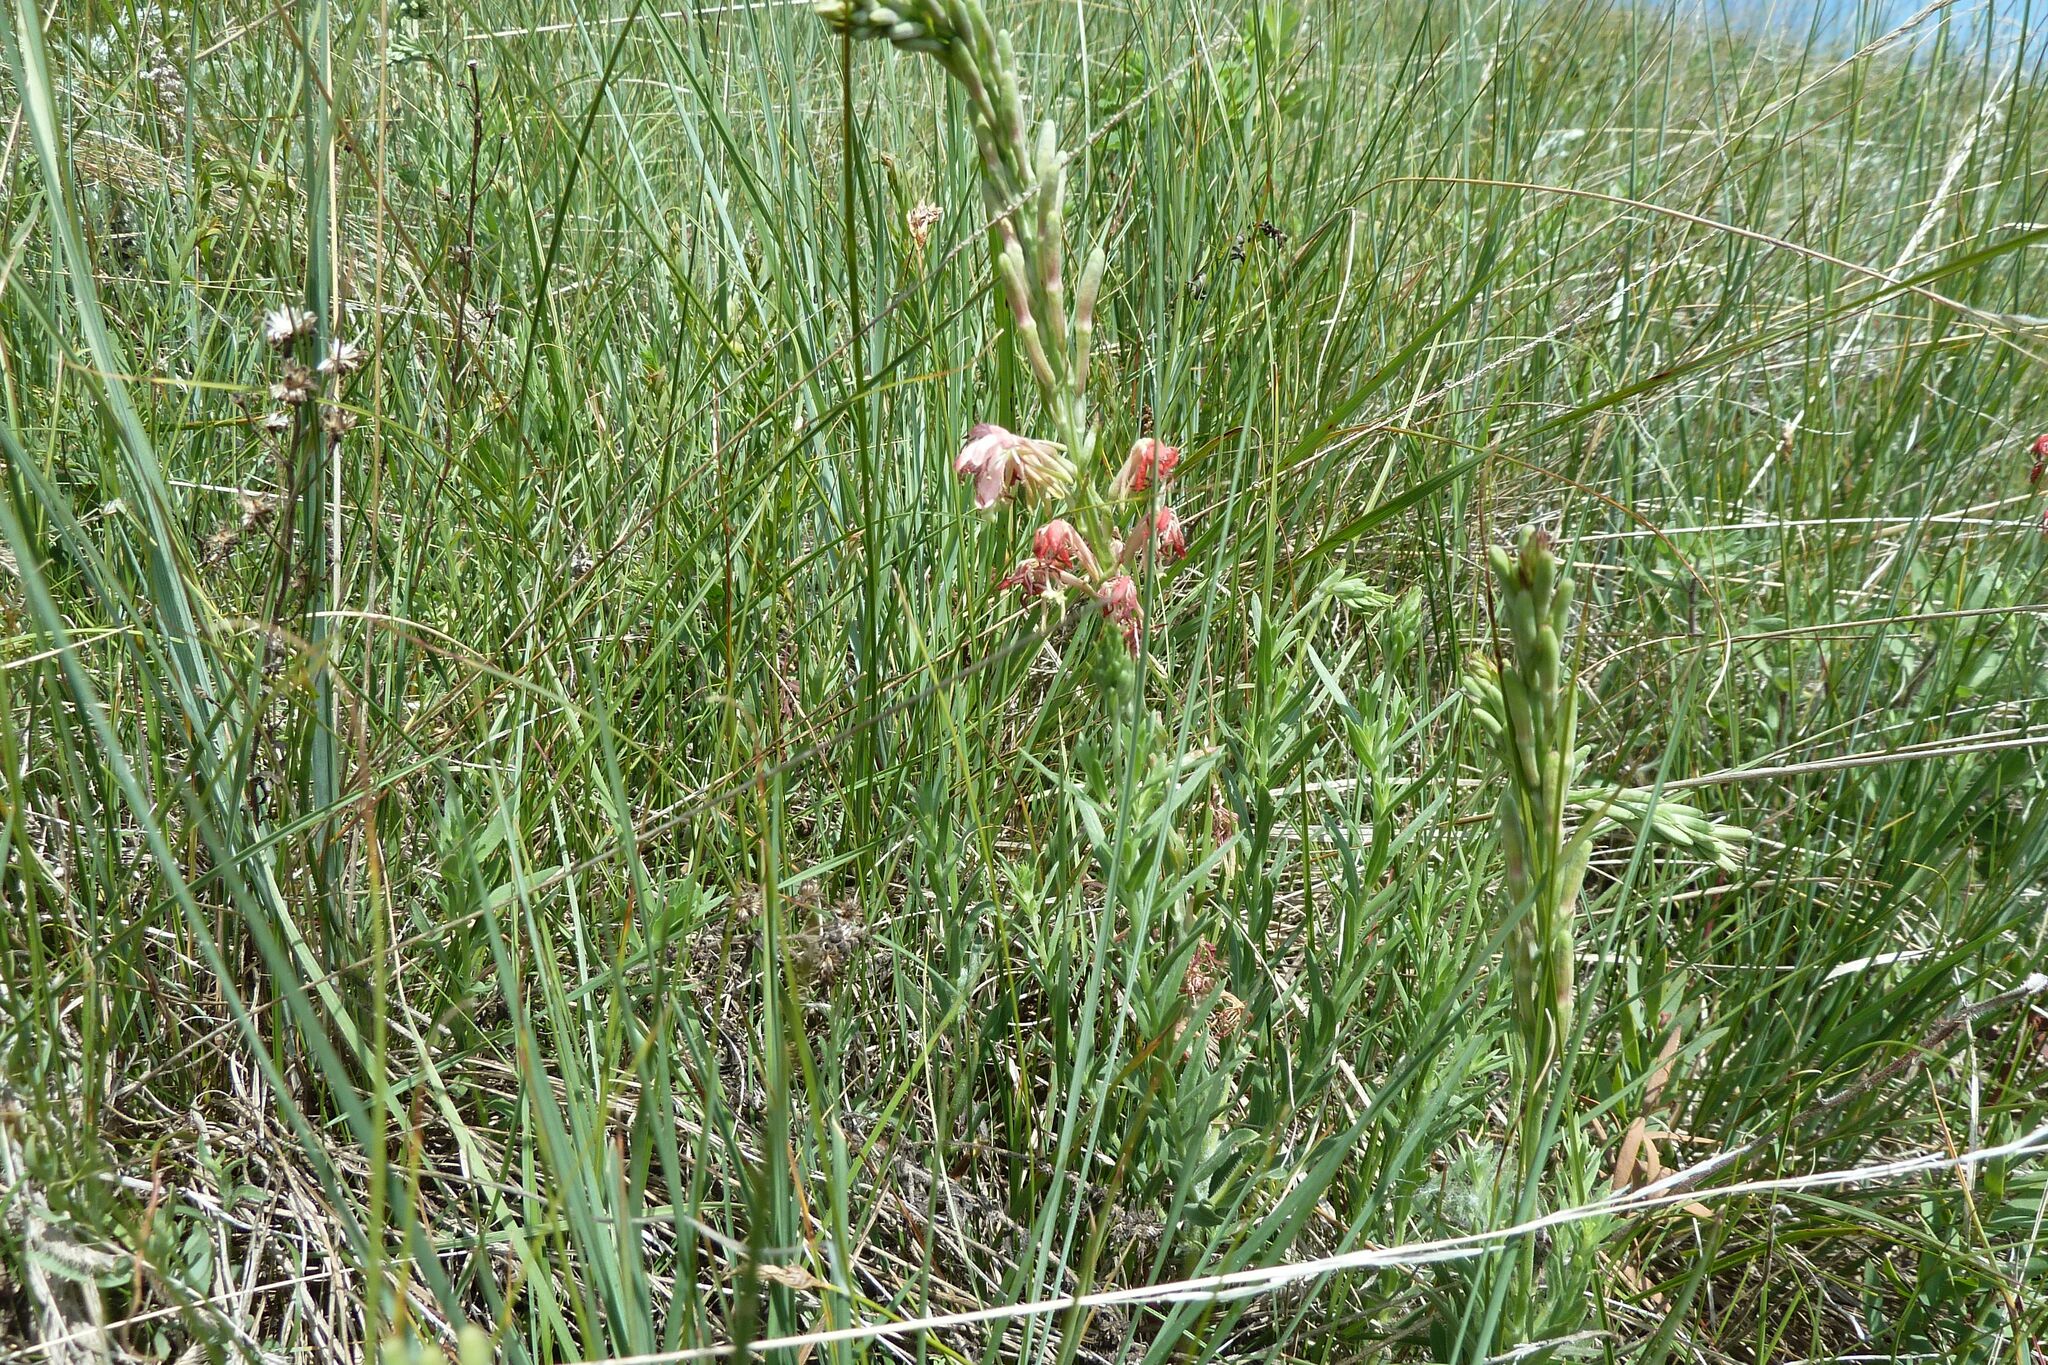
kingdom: Plantae
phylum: Tracheophyta
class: Magnoliopsida
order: Myrtales
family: Onagraceae
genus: Oenothera
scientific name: Oenothera suffrutescens
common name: Scarlet beeblossom
